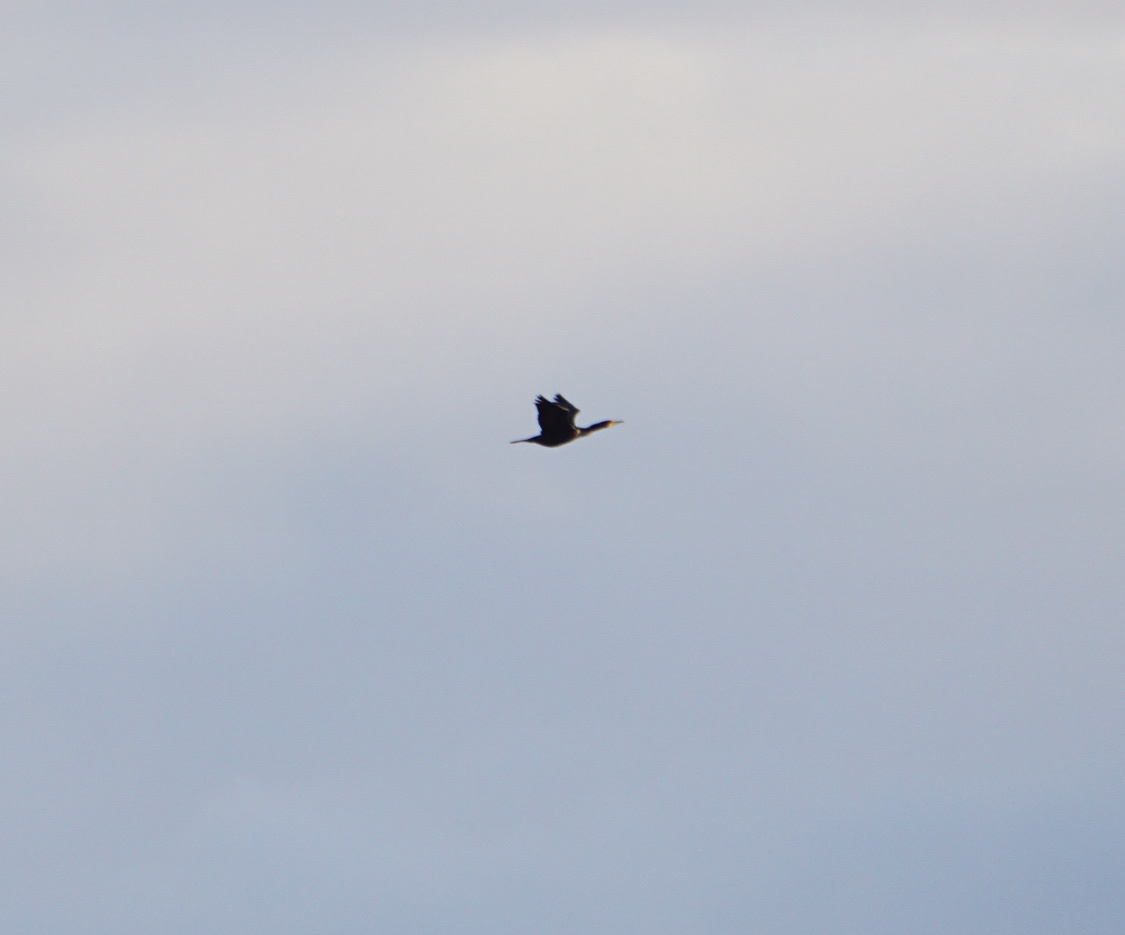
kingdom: Animalia
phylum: Chordata
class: Aves
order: Suliformes
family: Phalacrocoracidae
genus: Phalacrocorax
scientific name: Phalacrocorax auritus
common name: Double-crested cormorant
